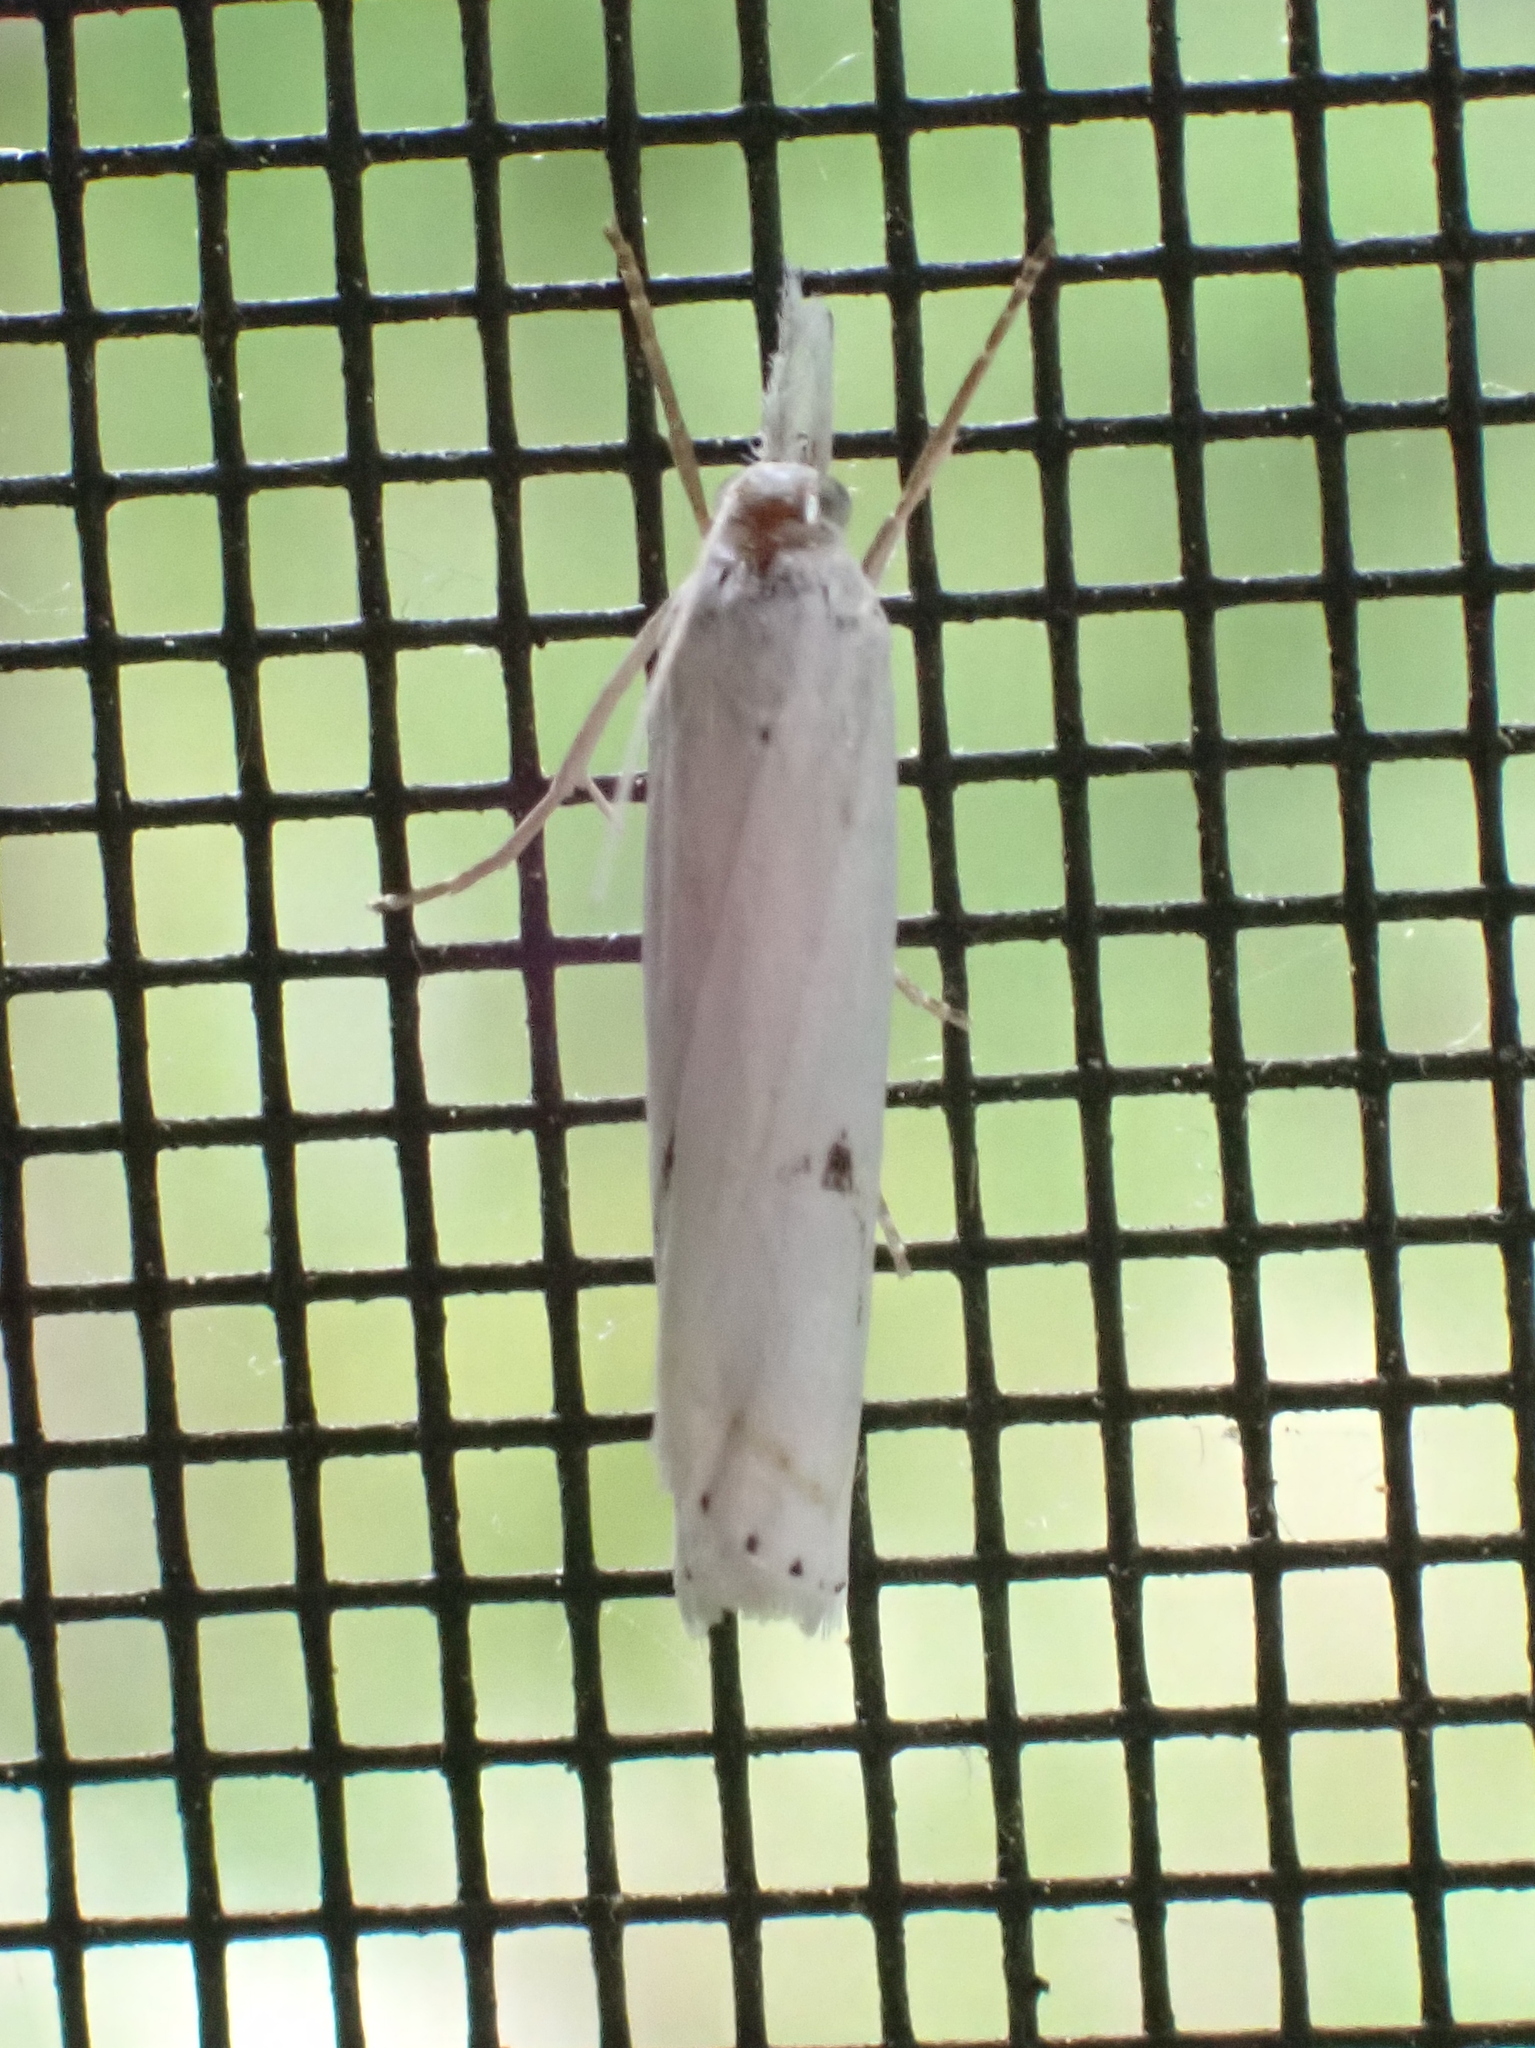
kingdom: Animalia
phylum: Arthropoda
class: Insecta
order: Lepidoptera
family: Crambidae
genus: Crambus
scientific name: Crambus Arequipa turbatella
